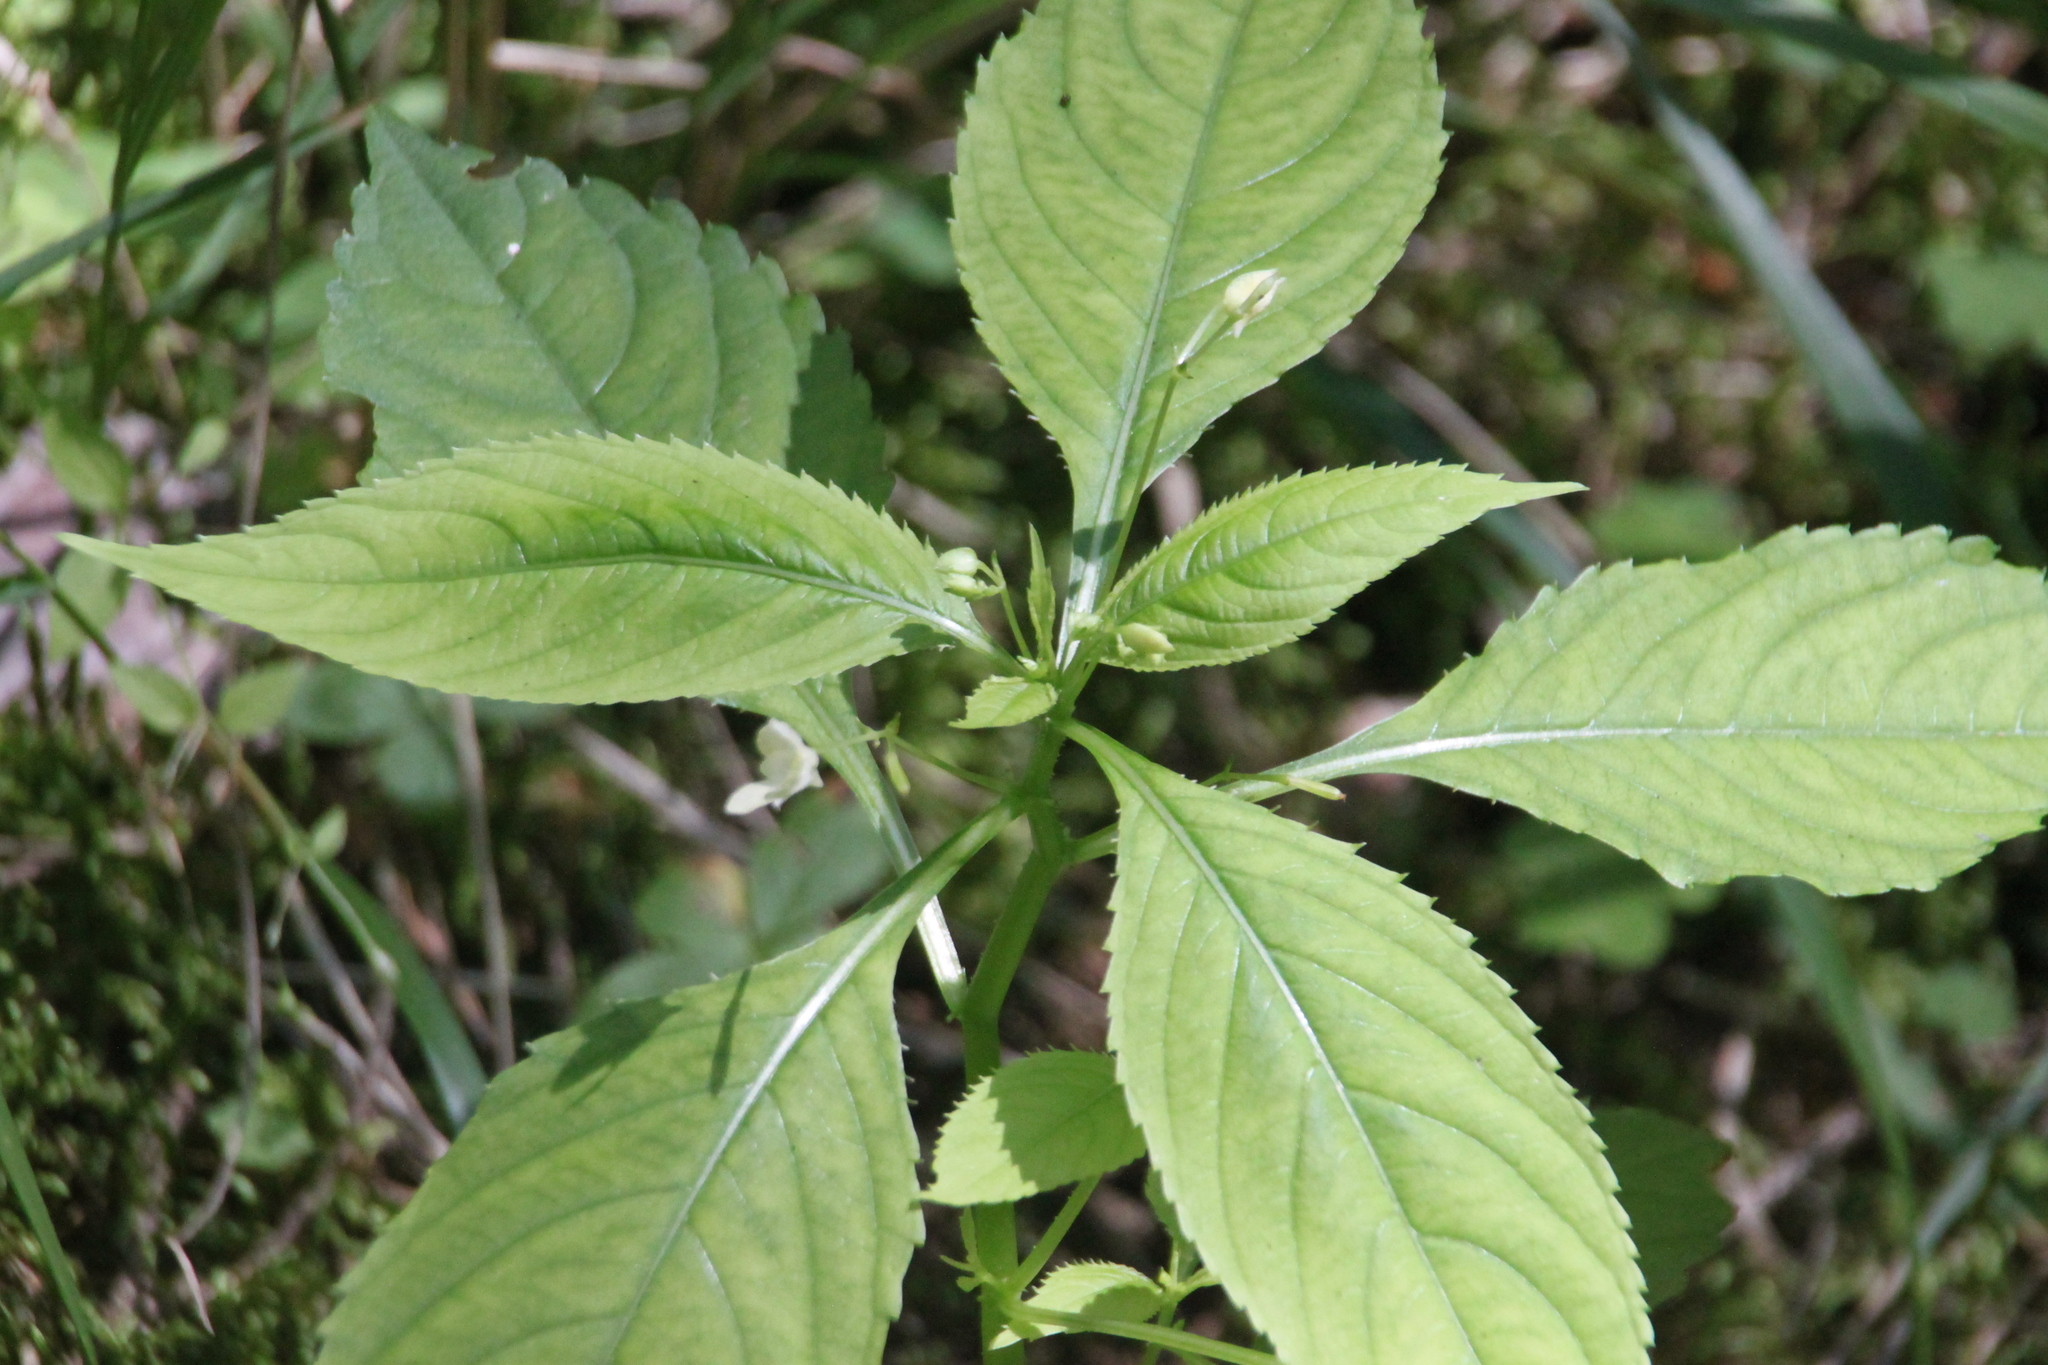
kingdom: Plantae
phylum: Tracheophyta
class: Magnoliopsida
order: Ericales
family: Balsaminaceae
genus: Impatiens
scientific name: Impatiens parviflora
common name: Small balsam
